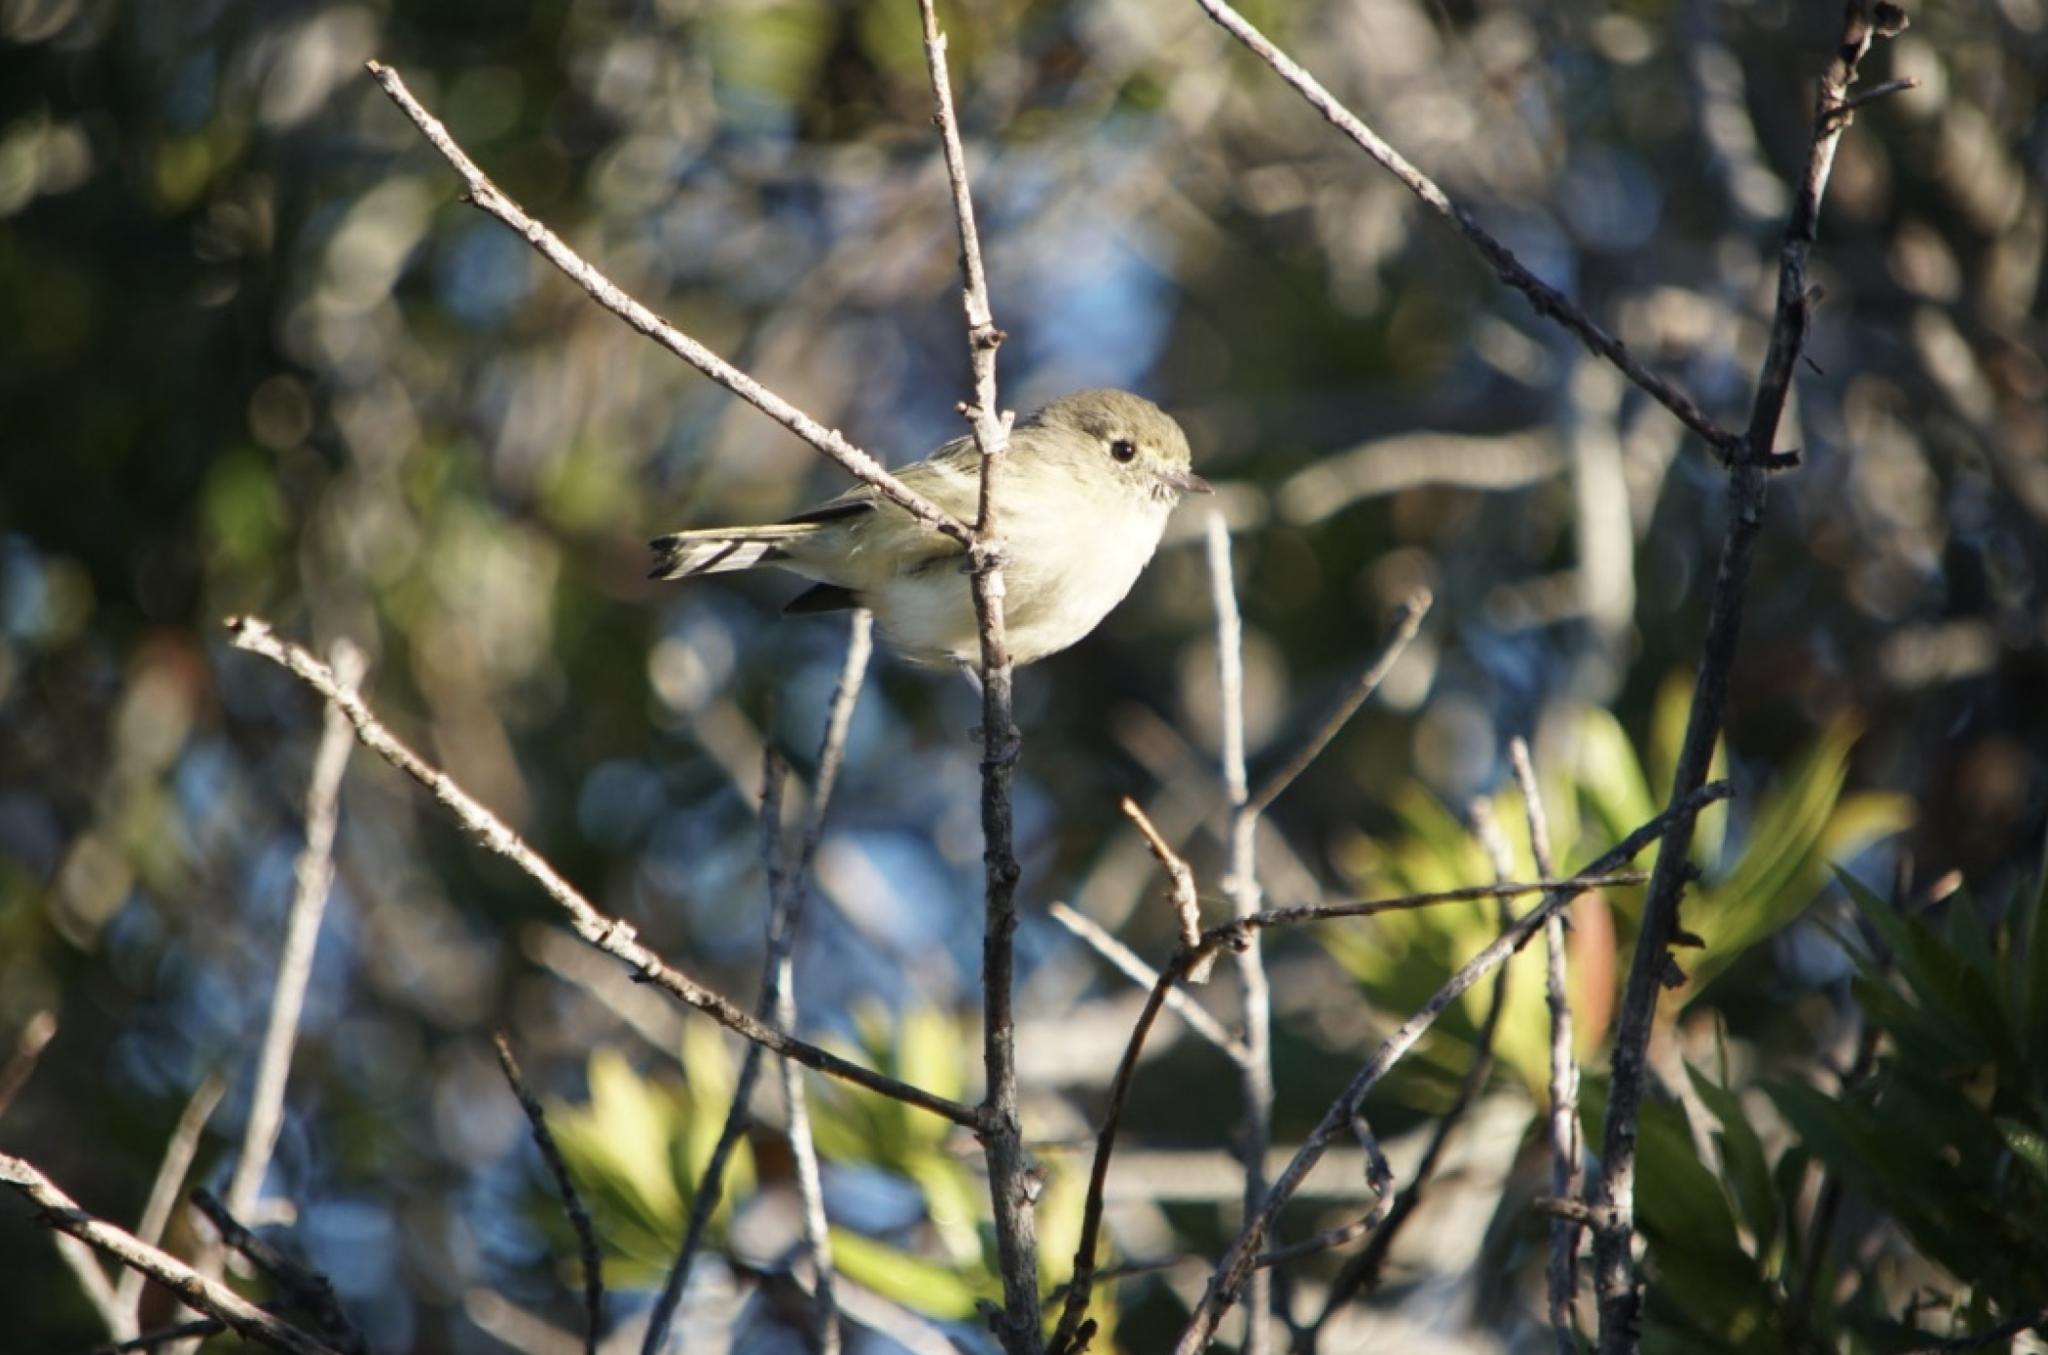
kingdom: Animalia
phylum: Chordata
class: Aves
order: Passeriformes
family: Vireonidae
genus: Vireo
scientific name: Vireo huttoni
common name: Hutton's vireo
